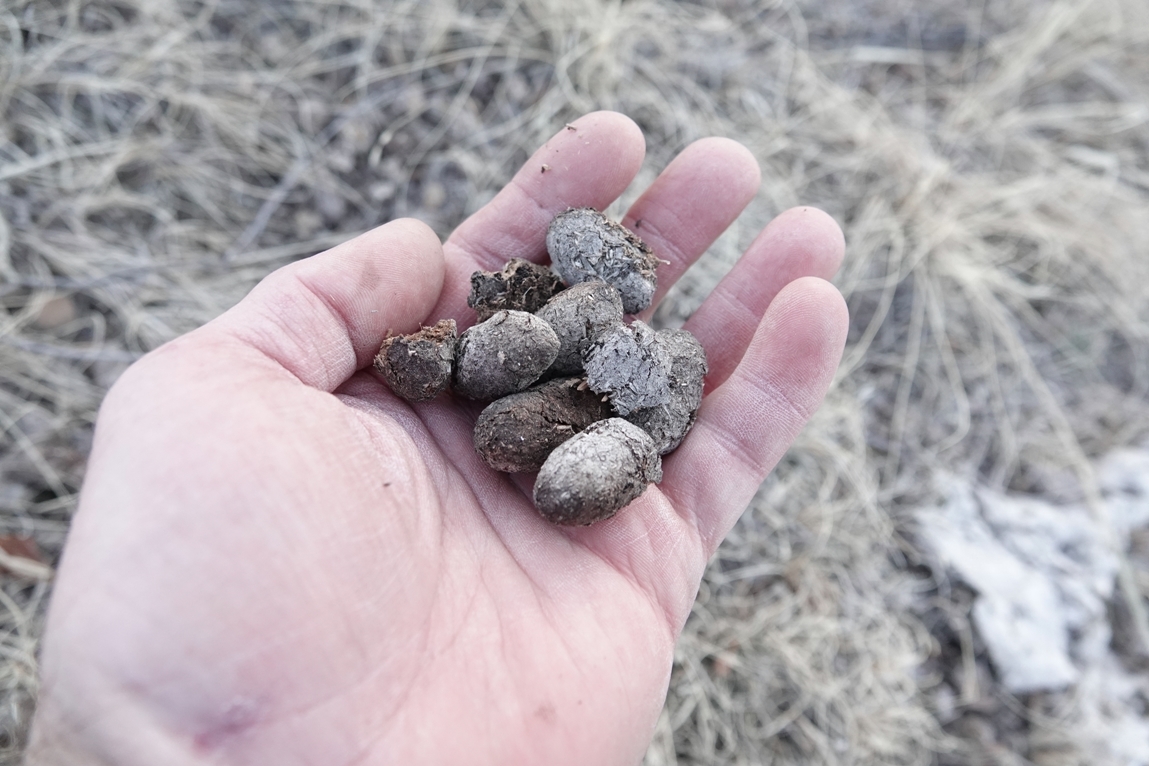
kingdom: Animalia
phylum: Chordata
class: Mammalia
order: Artiodactyla
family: Cervidae
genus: Alces
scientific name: Alces alces
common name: Moose
